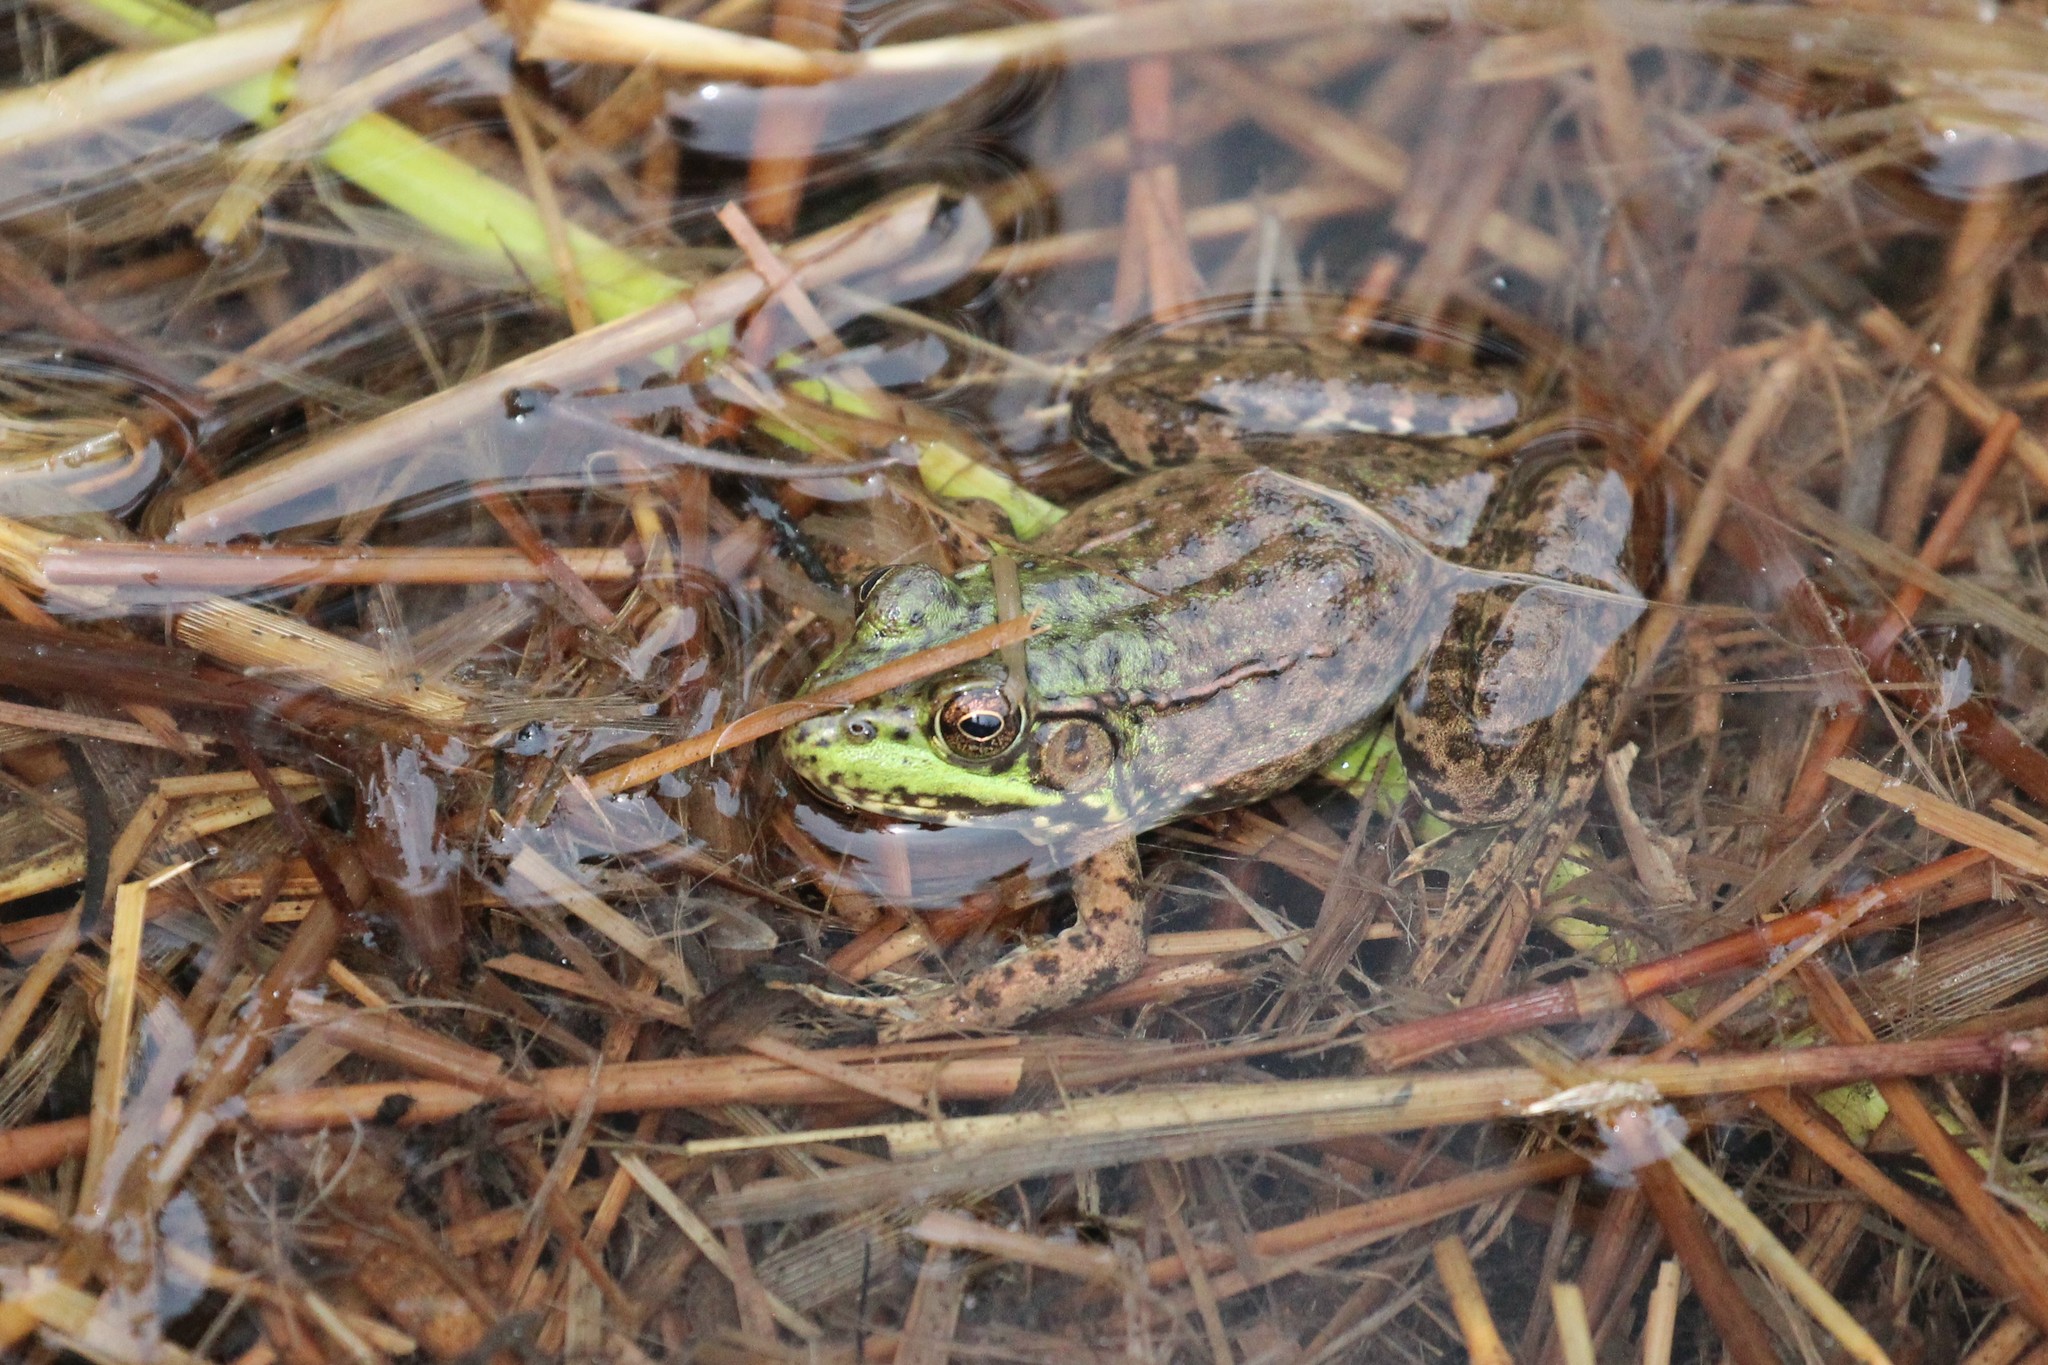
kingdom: Animalia
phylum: Chordata
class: Amphibia
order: Anura
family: Ranidae
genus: Lithobates
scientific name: Lithobates clamitans
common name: Green frog
